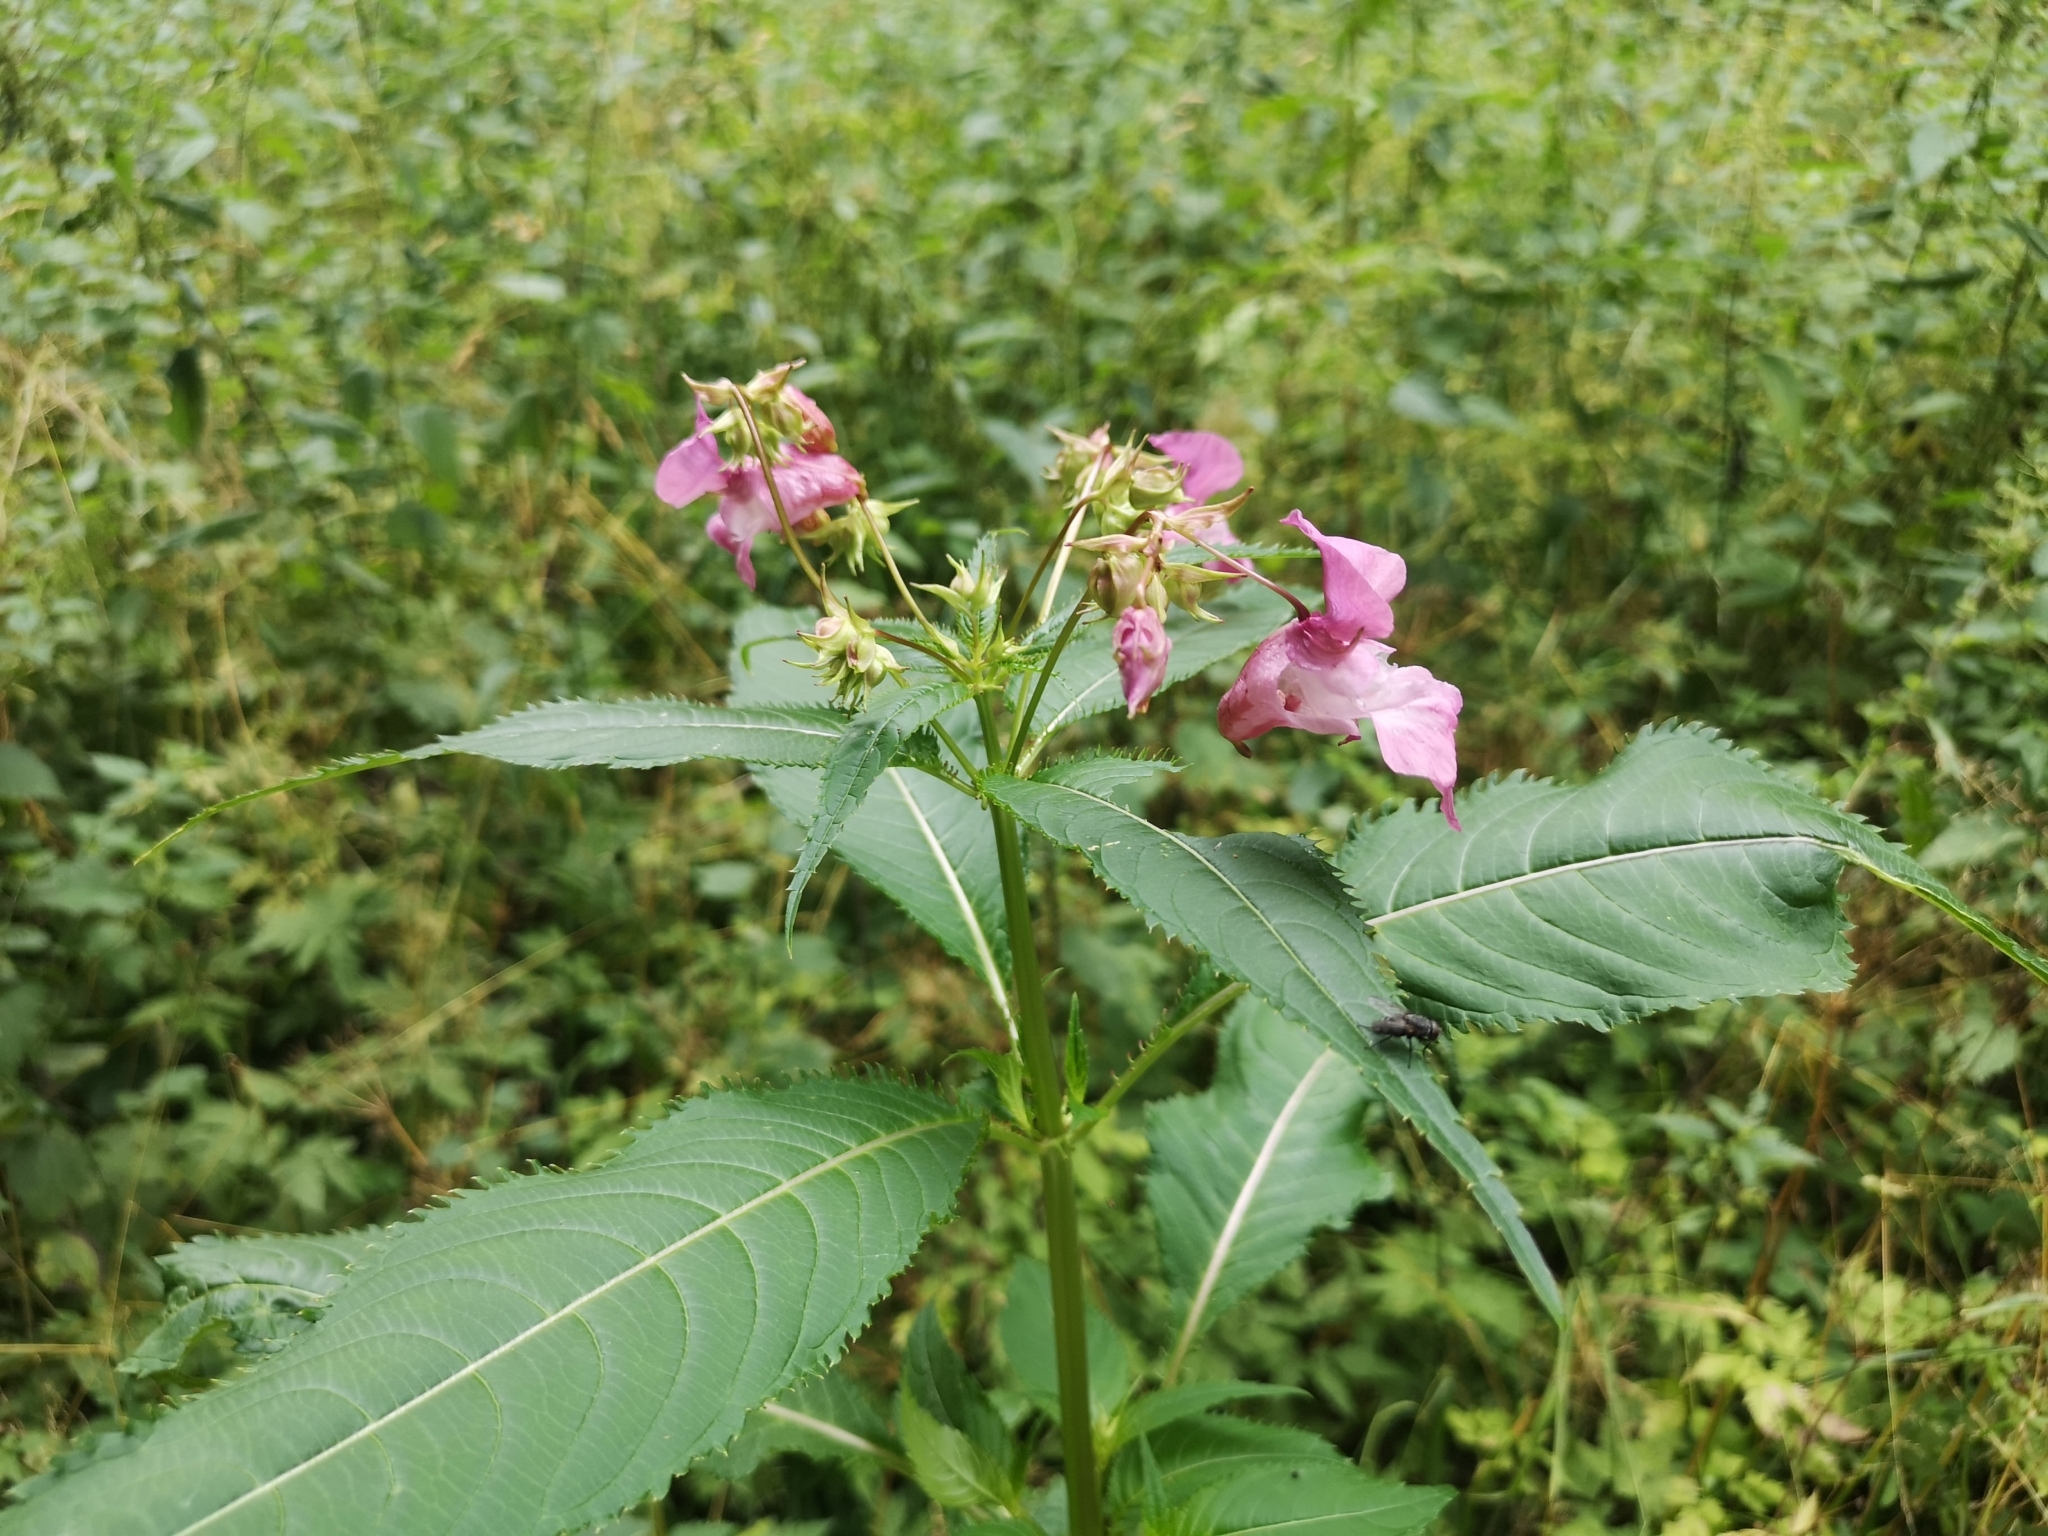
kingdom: Plantae
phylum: Tracheophyta
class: Magnoliopsida
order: Ericales
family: Balsaminaceae
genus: Impatiens
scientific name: Impatiens glandulifera
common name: Himalayan balsam
